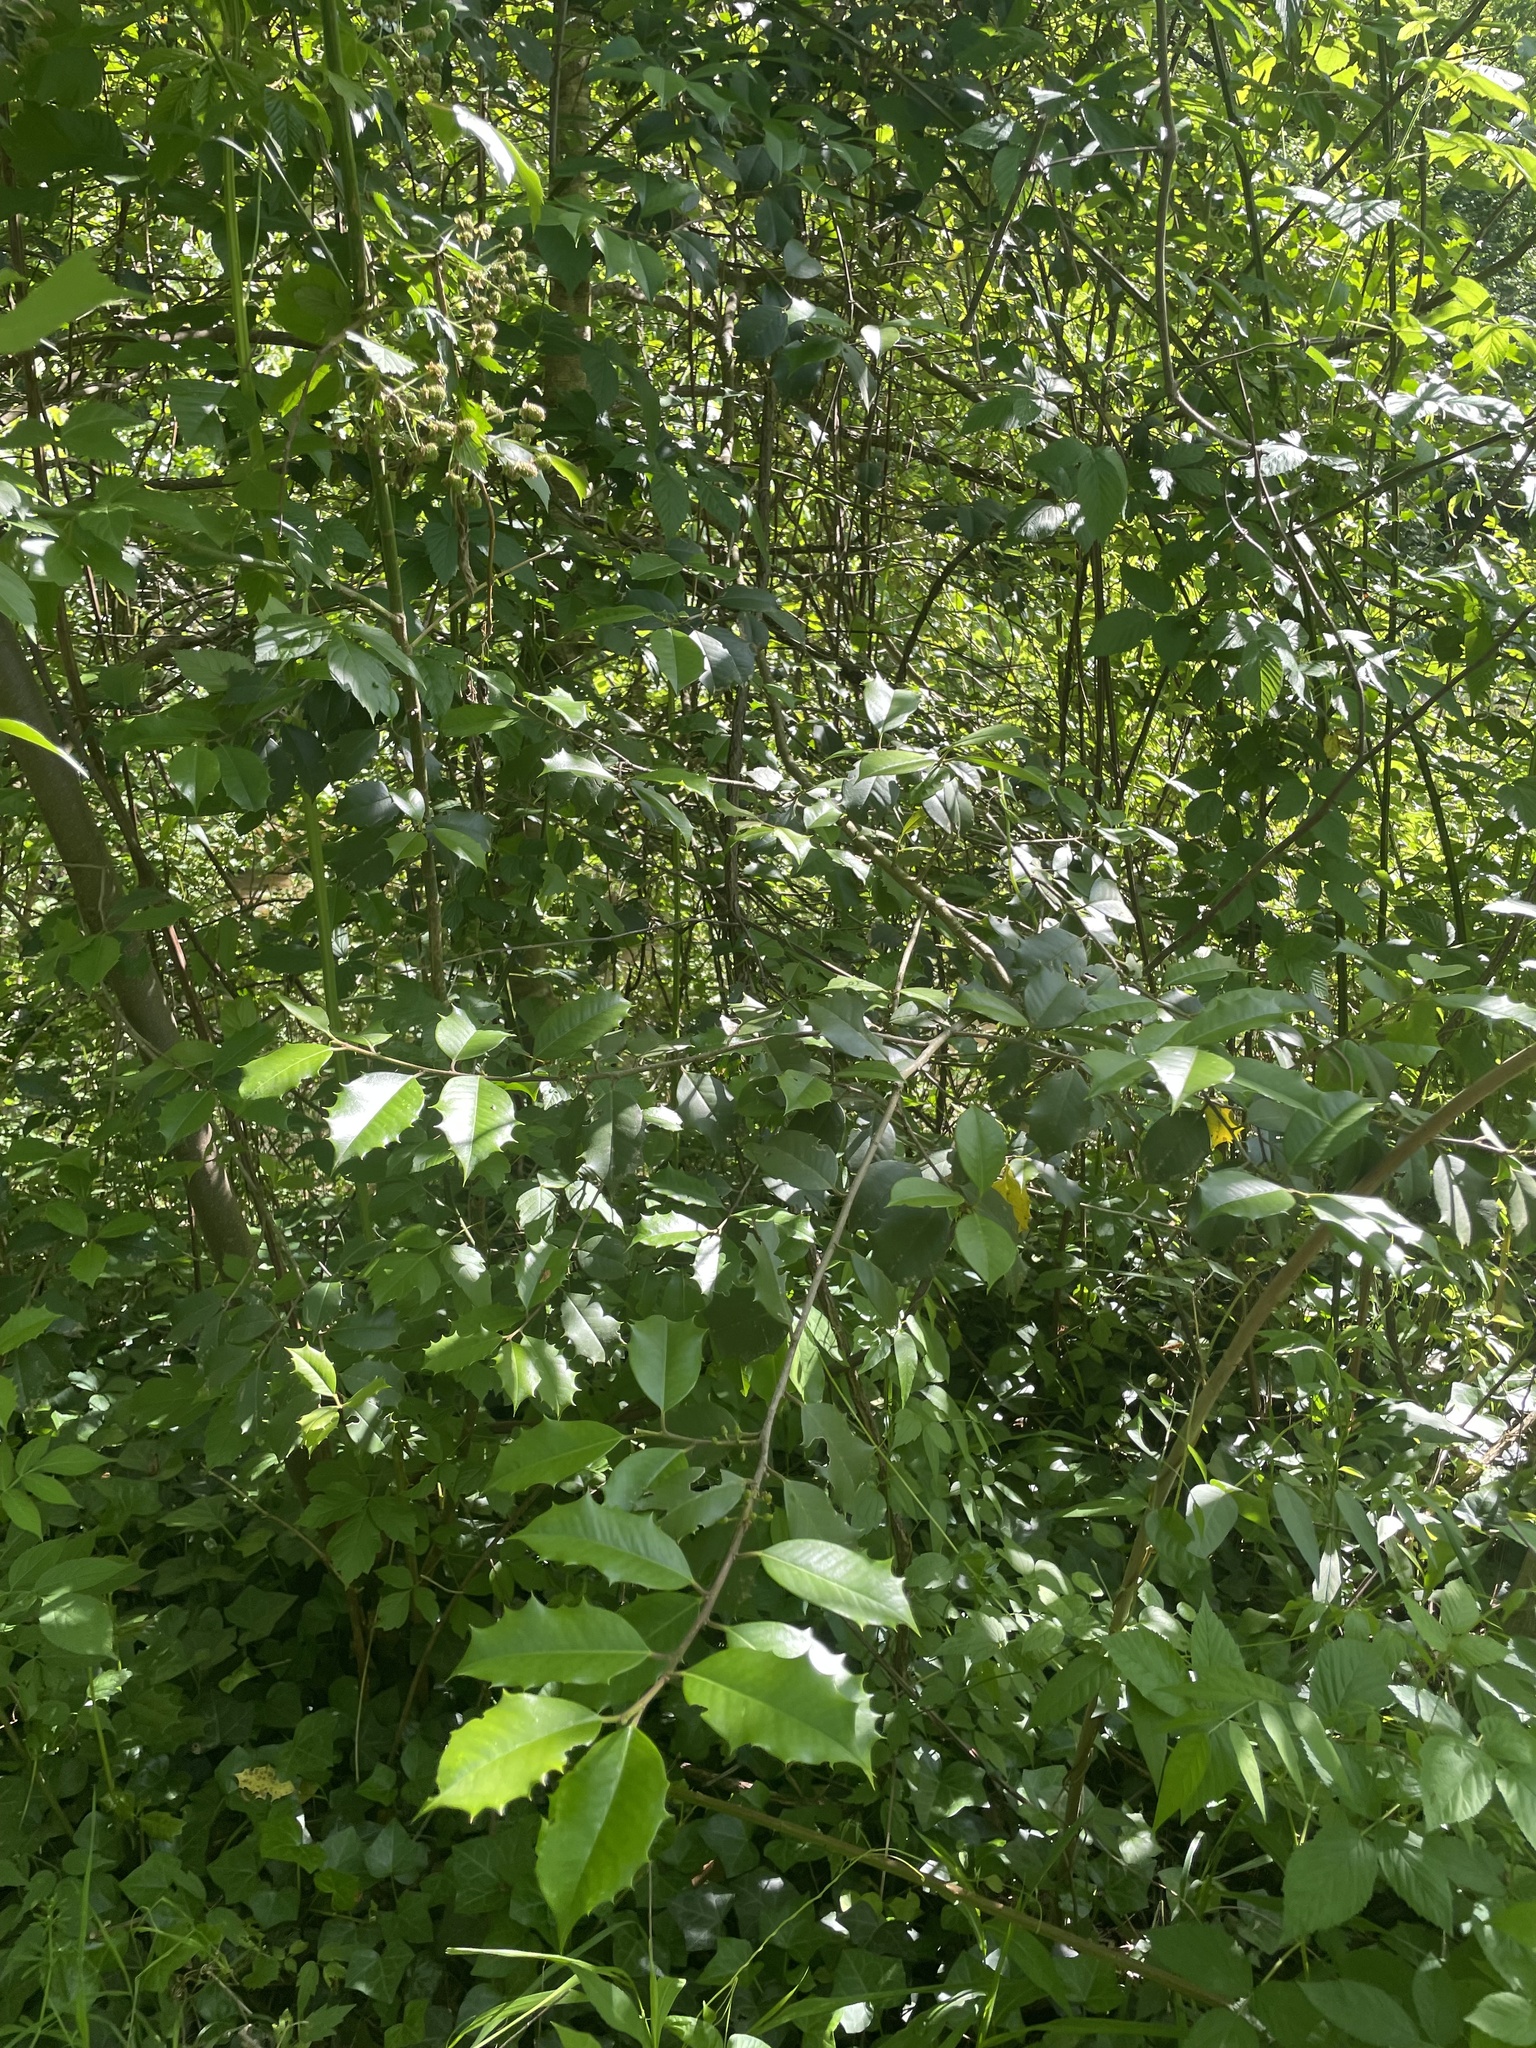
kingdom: Plantae
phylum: Tracheophyta
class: Magnoliopsida
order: Aquifoliales
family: Aquifoliaceae
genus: Ilex
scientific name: Ilex opaca
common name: American holly
